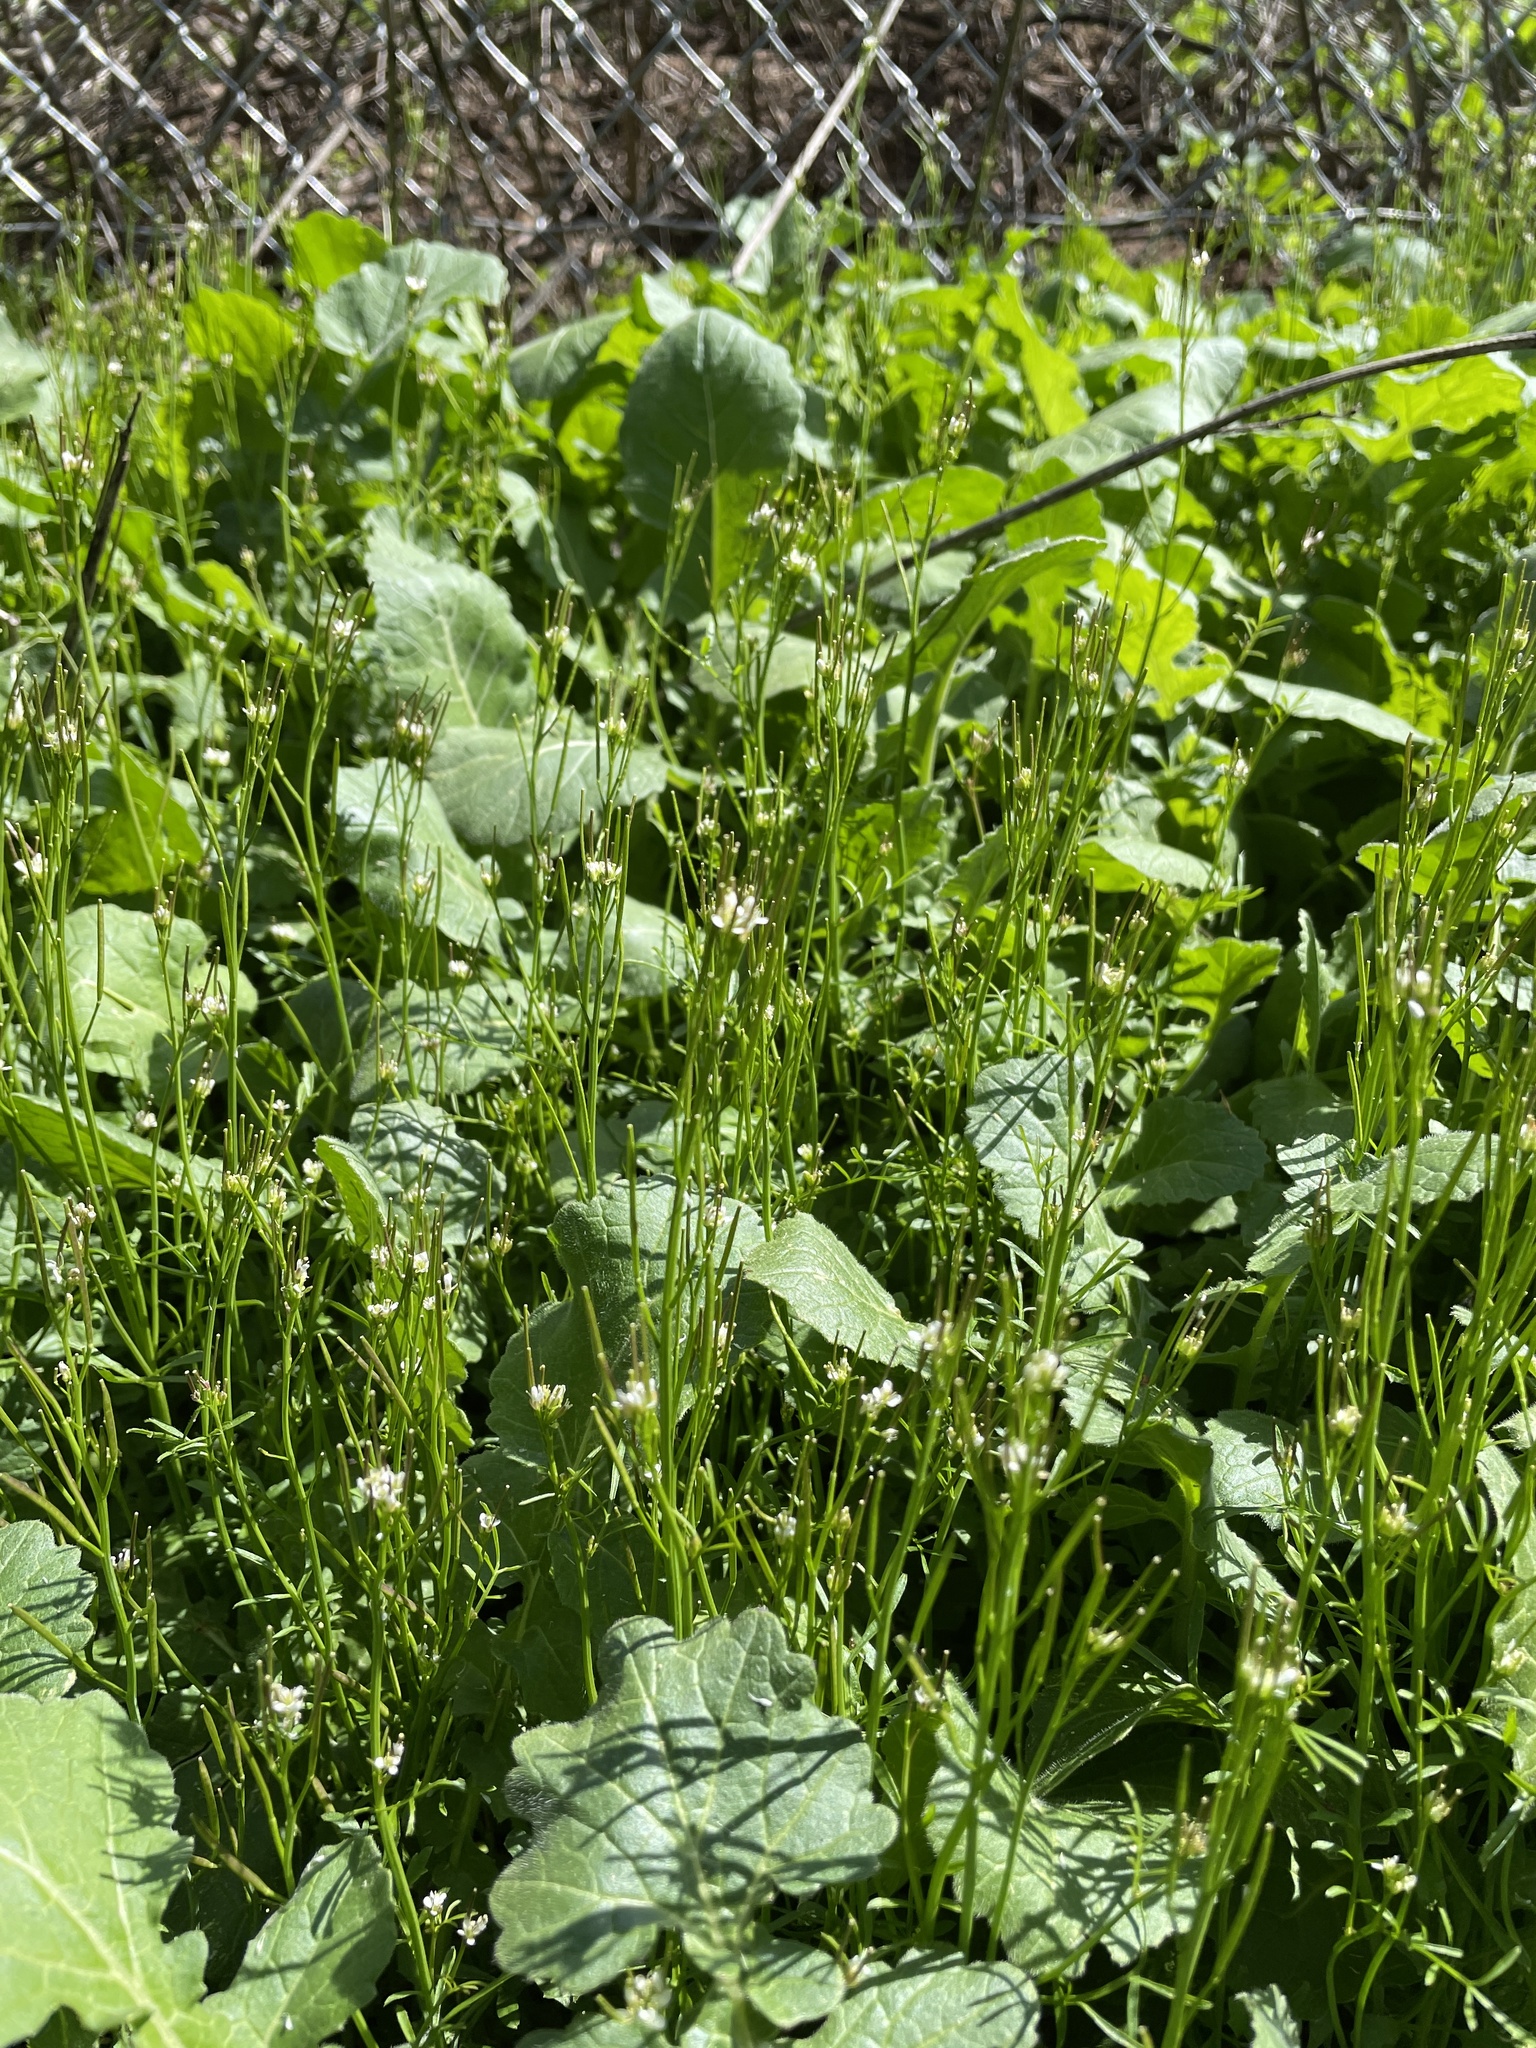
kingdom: Plantae
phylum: Tracheophyta
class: Magnoliopsida
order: Brassicales
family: Brassicaceae
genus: Cardamine
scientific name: Cardamine hirsuta
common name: Hairy bittercress
